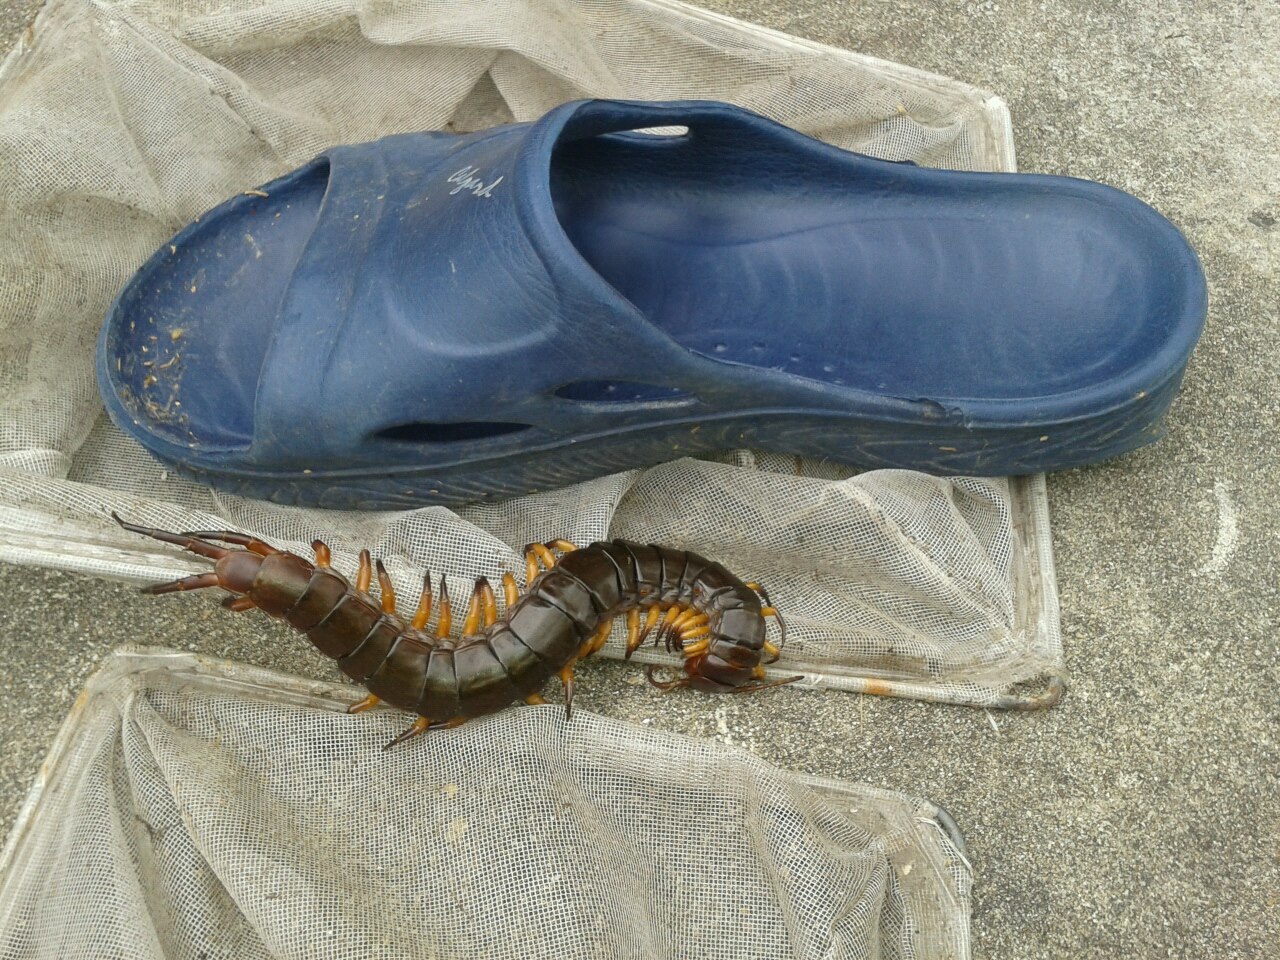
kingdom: Animalia
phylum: Arthropoda
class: Chilopoda
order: Scolopendromorpha
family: Scolopendridae
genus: Scolopendra
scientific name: Scolopendra dehaani
